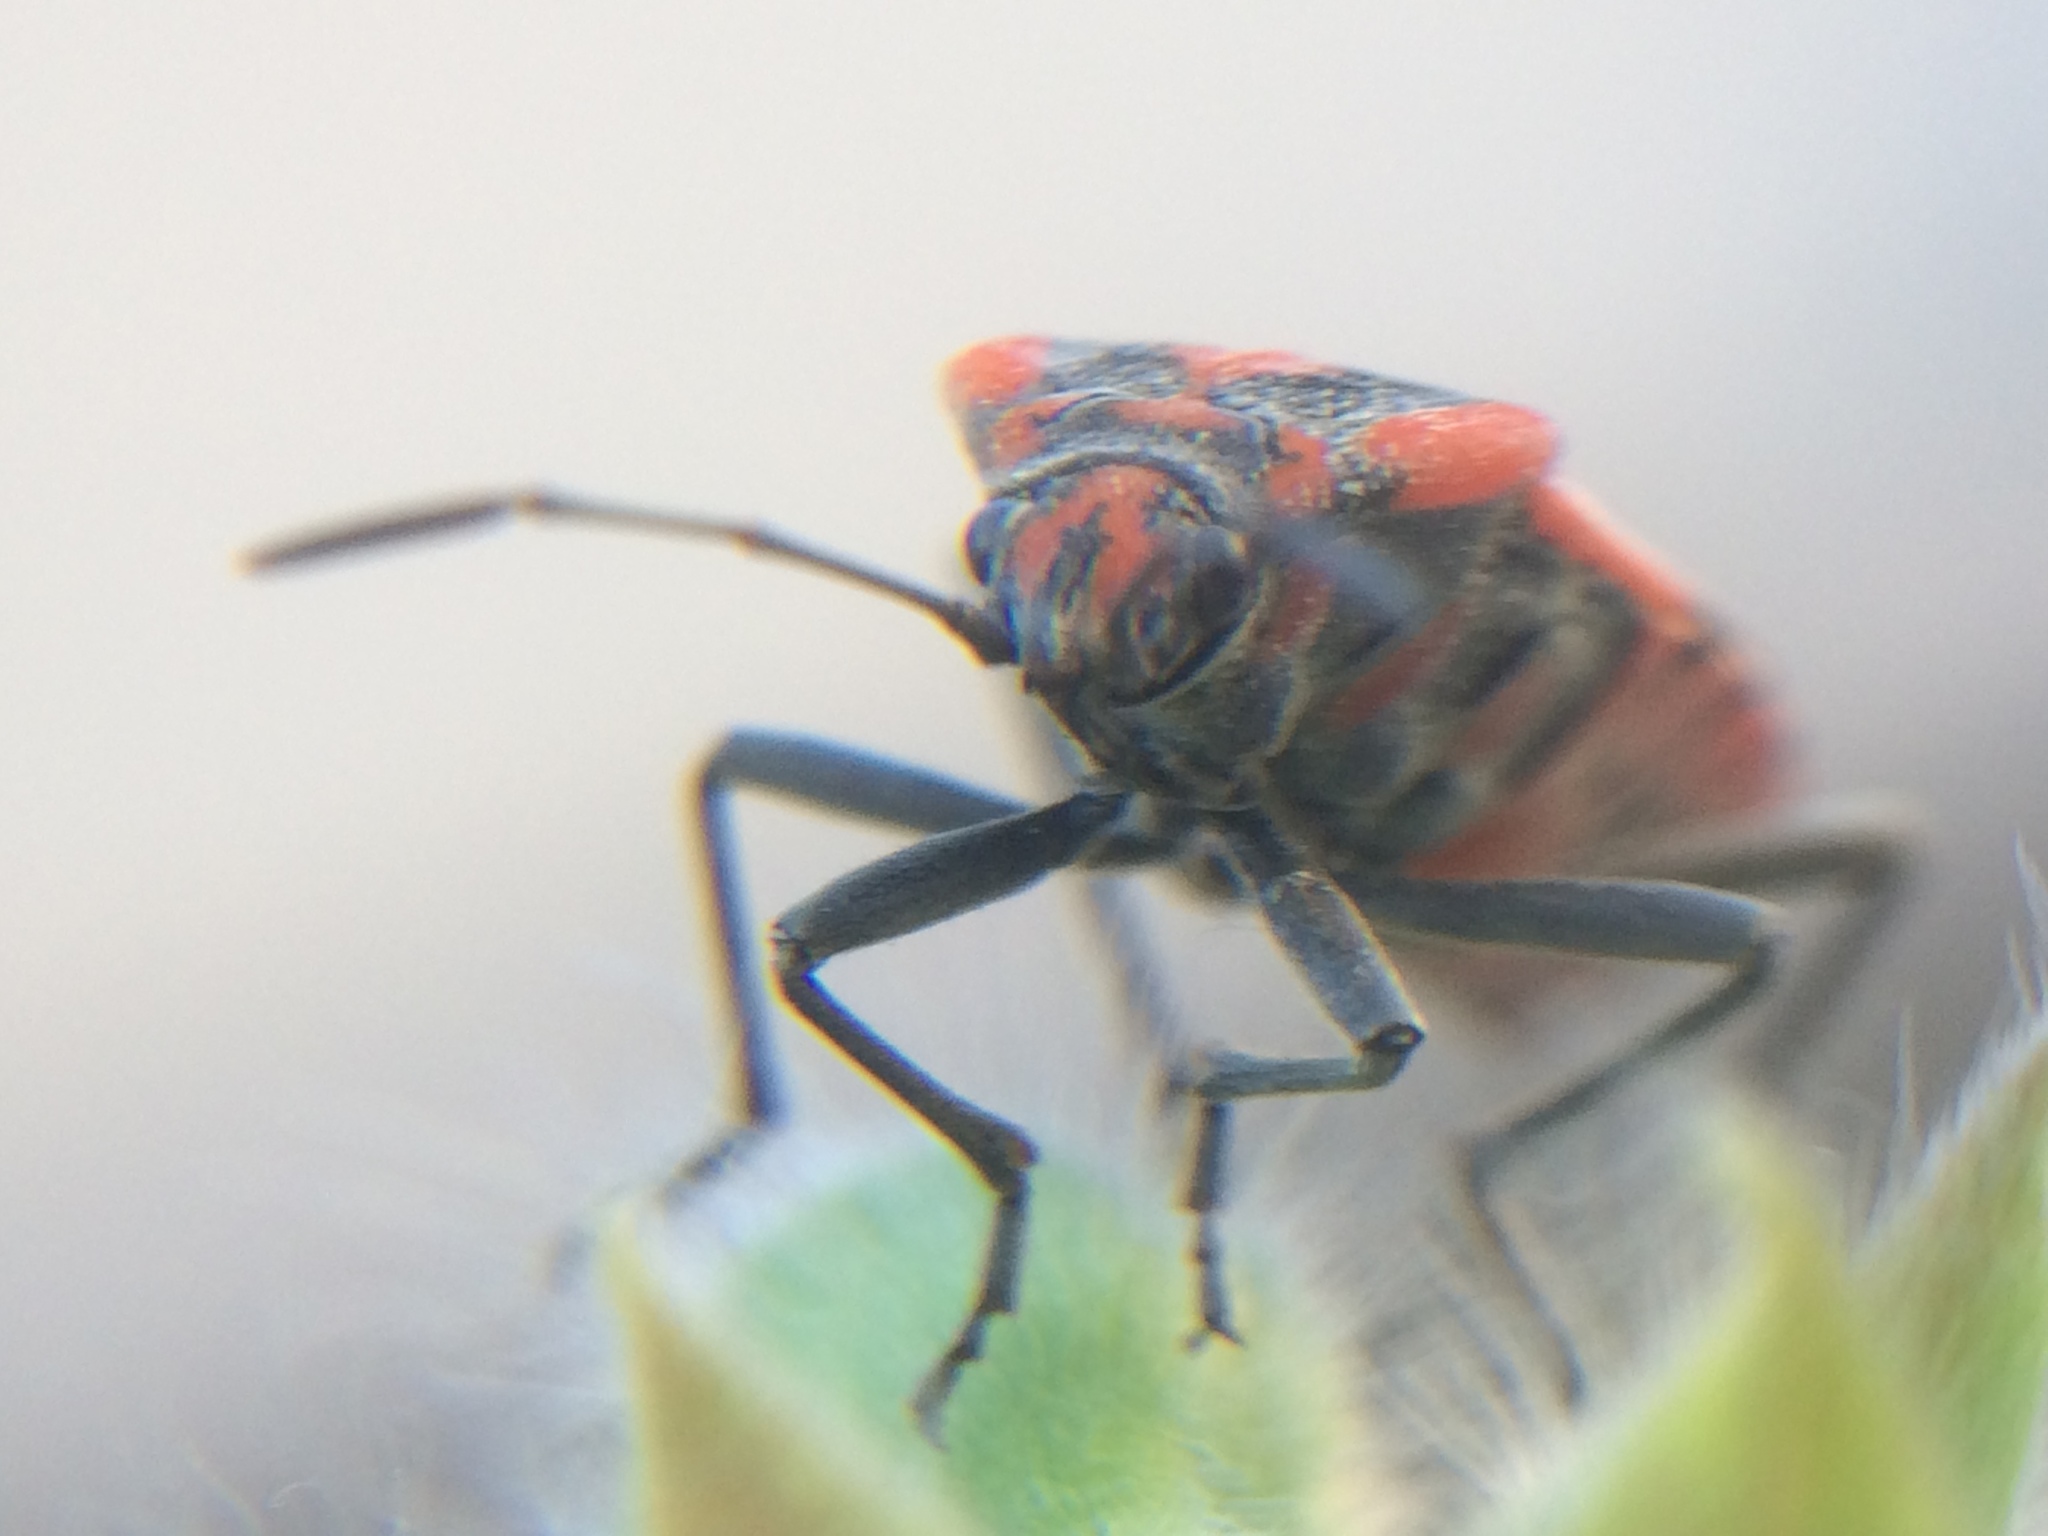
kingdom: Animalia
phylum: Arthropoda
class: Insecta
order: Hemiptera
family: Lygaeidae
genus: Spilostethus
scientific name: Spilostethus pandurus
